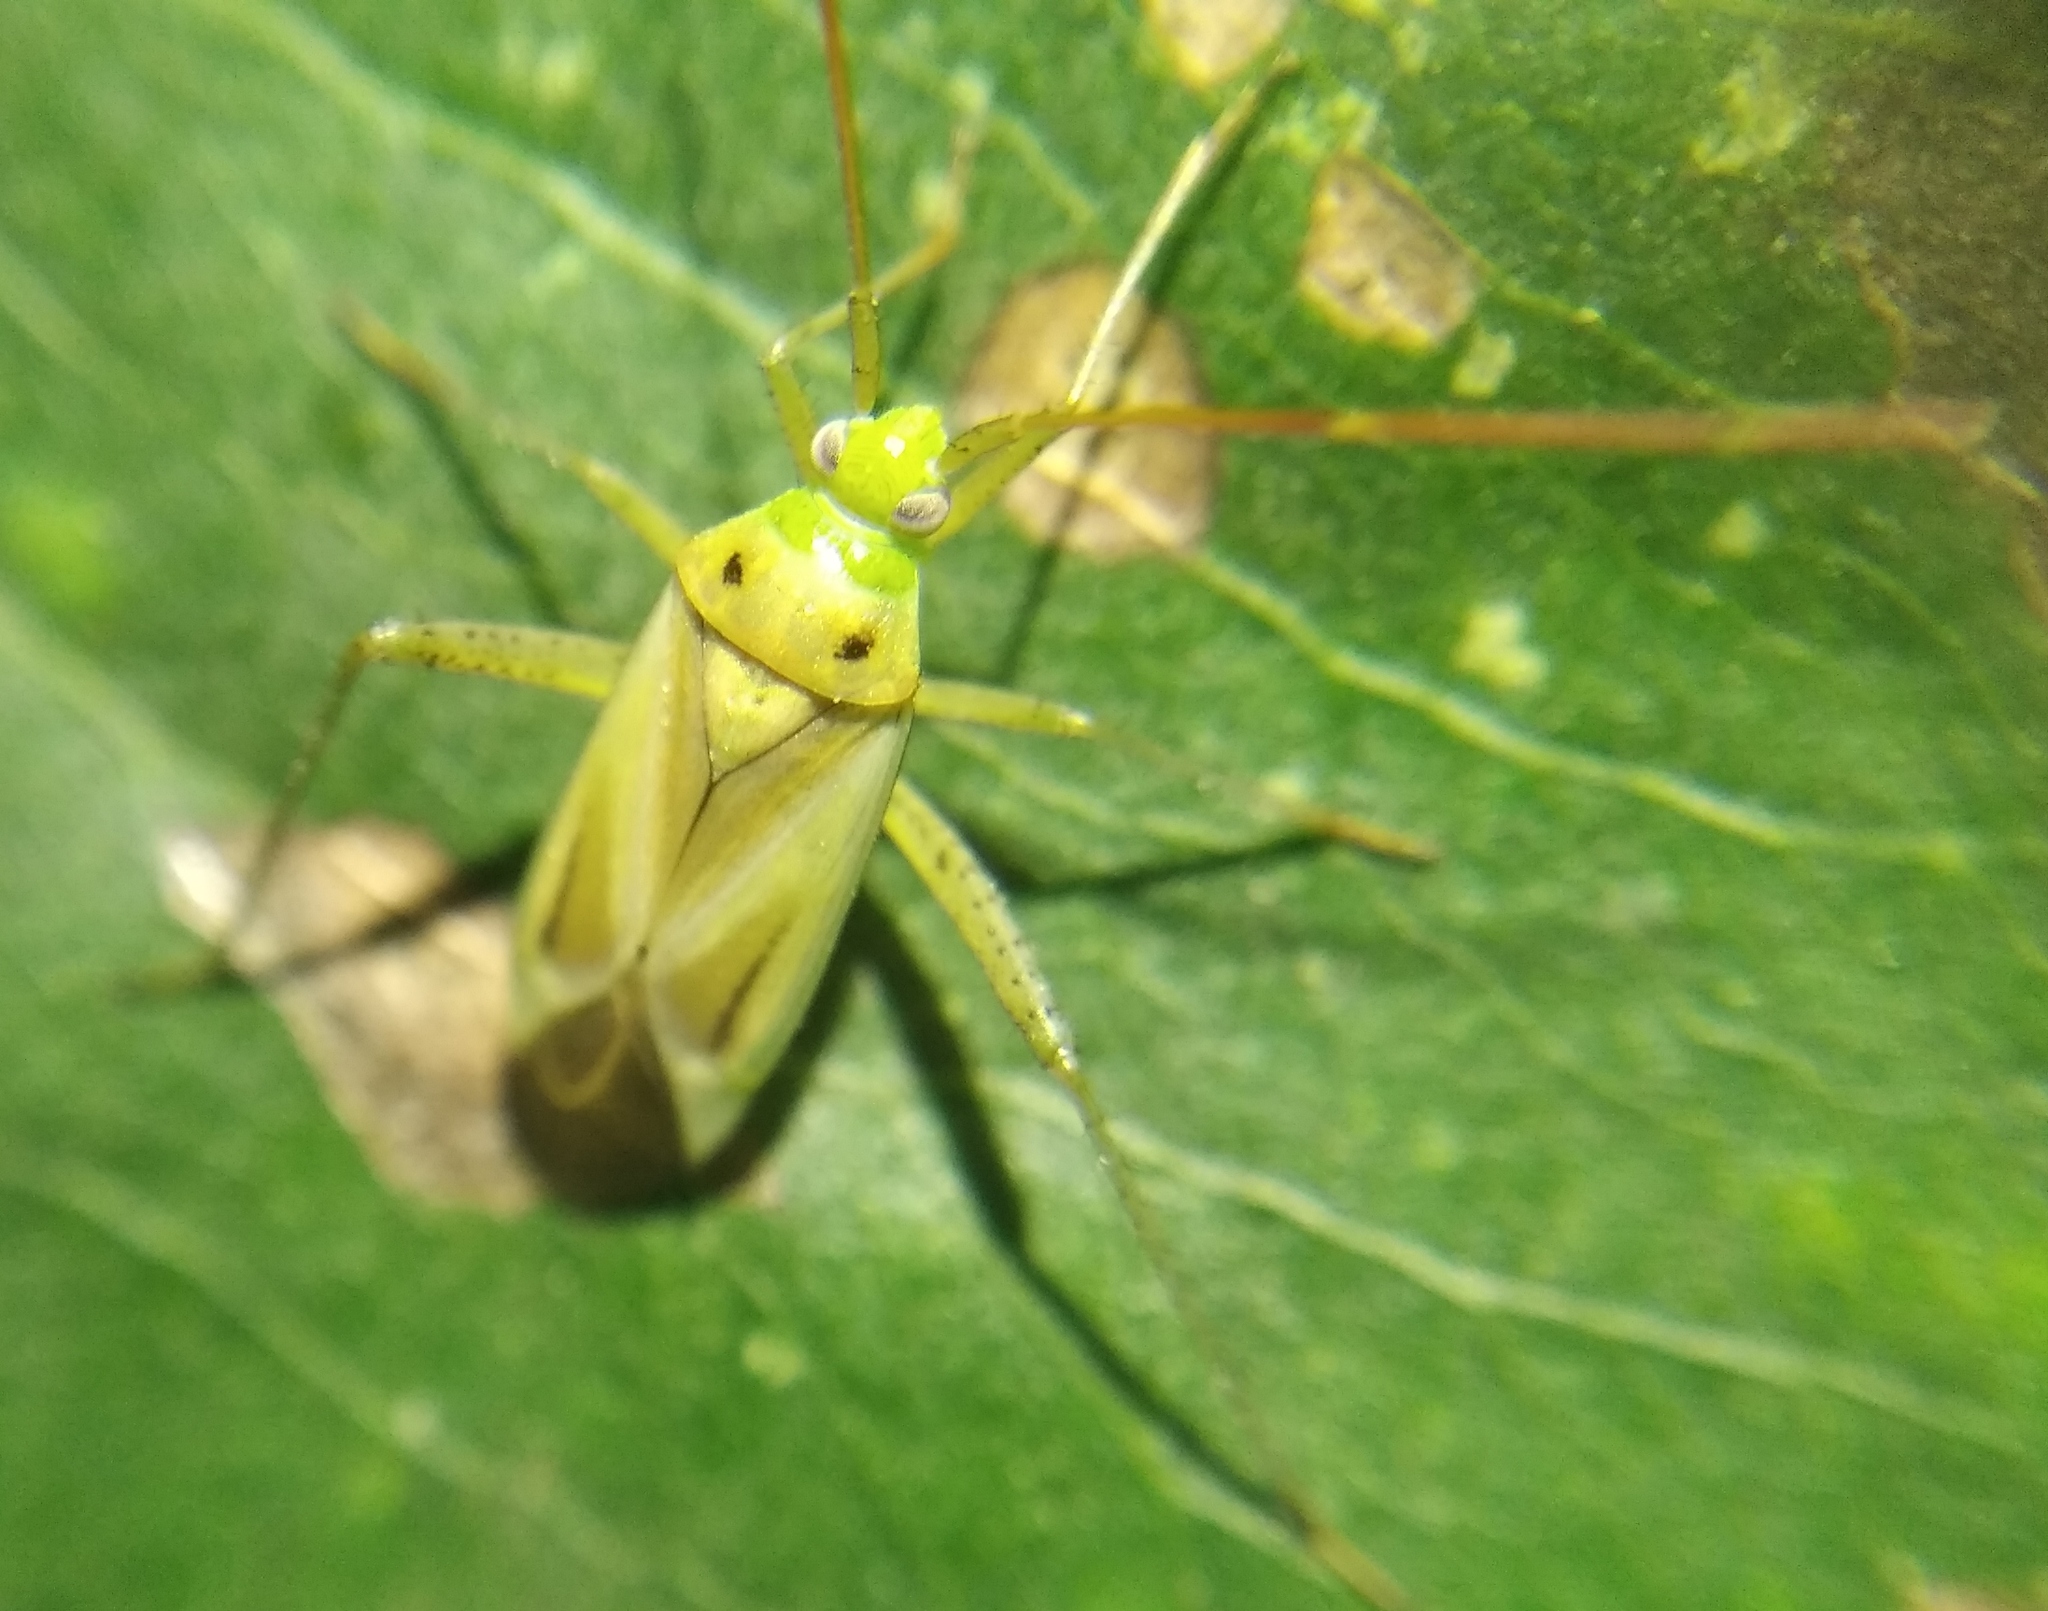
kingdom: Animalia
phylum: Arthropoda
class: Insecta
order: Hemiptera
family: Miridae
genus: Adelphocoris
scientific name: Adelphocoris lineolatus
